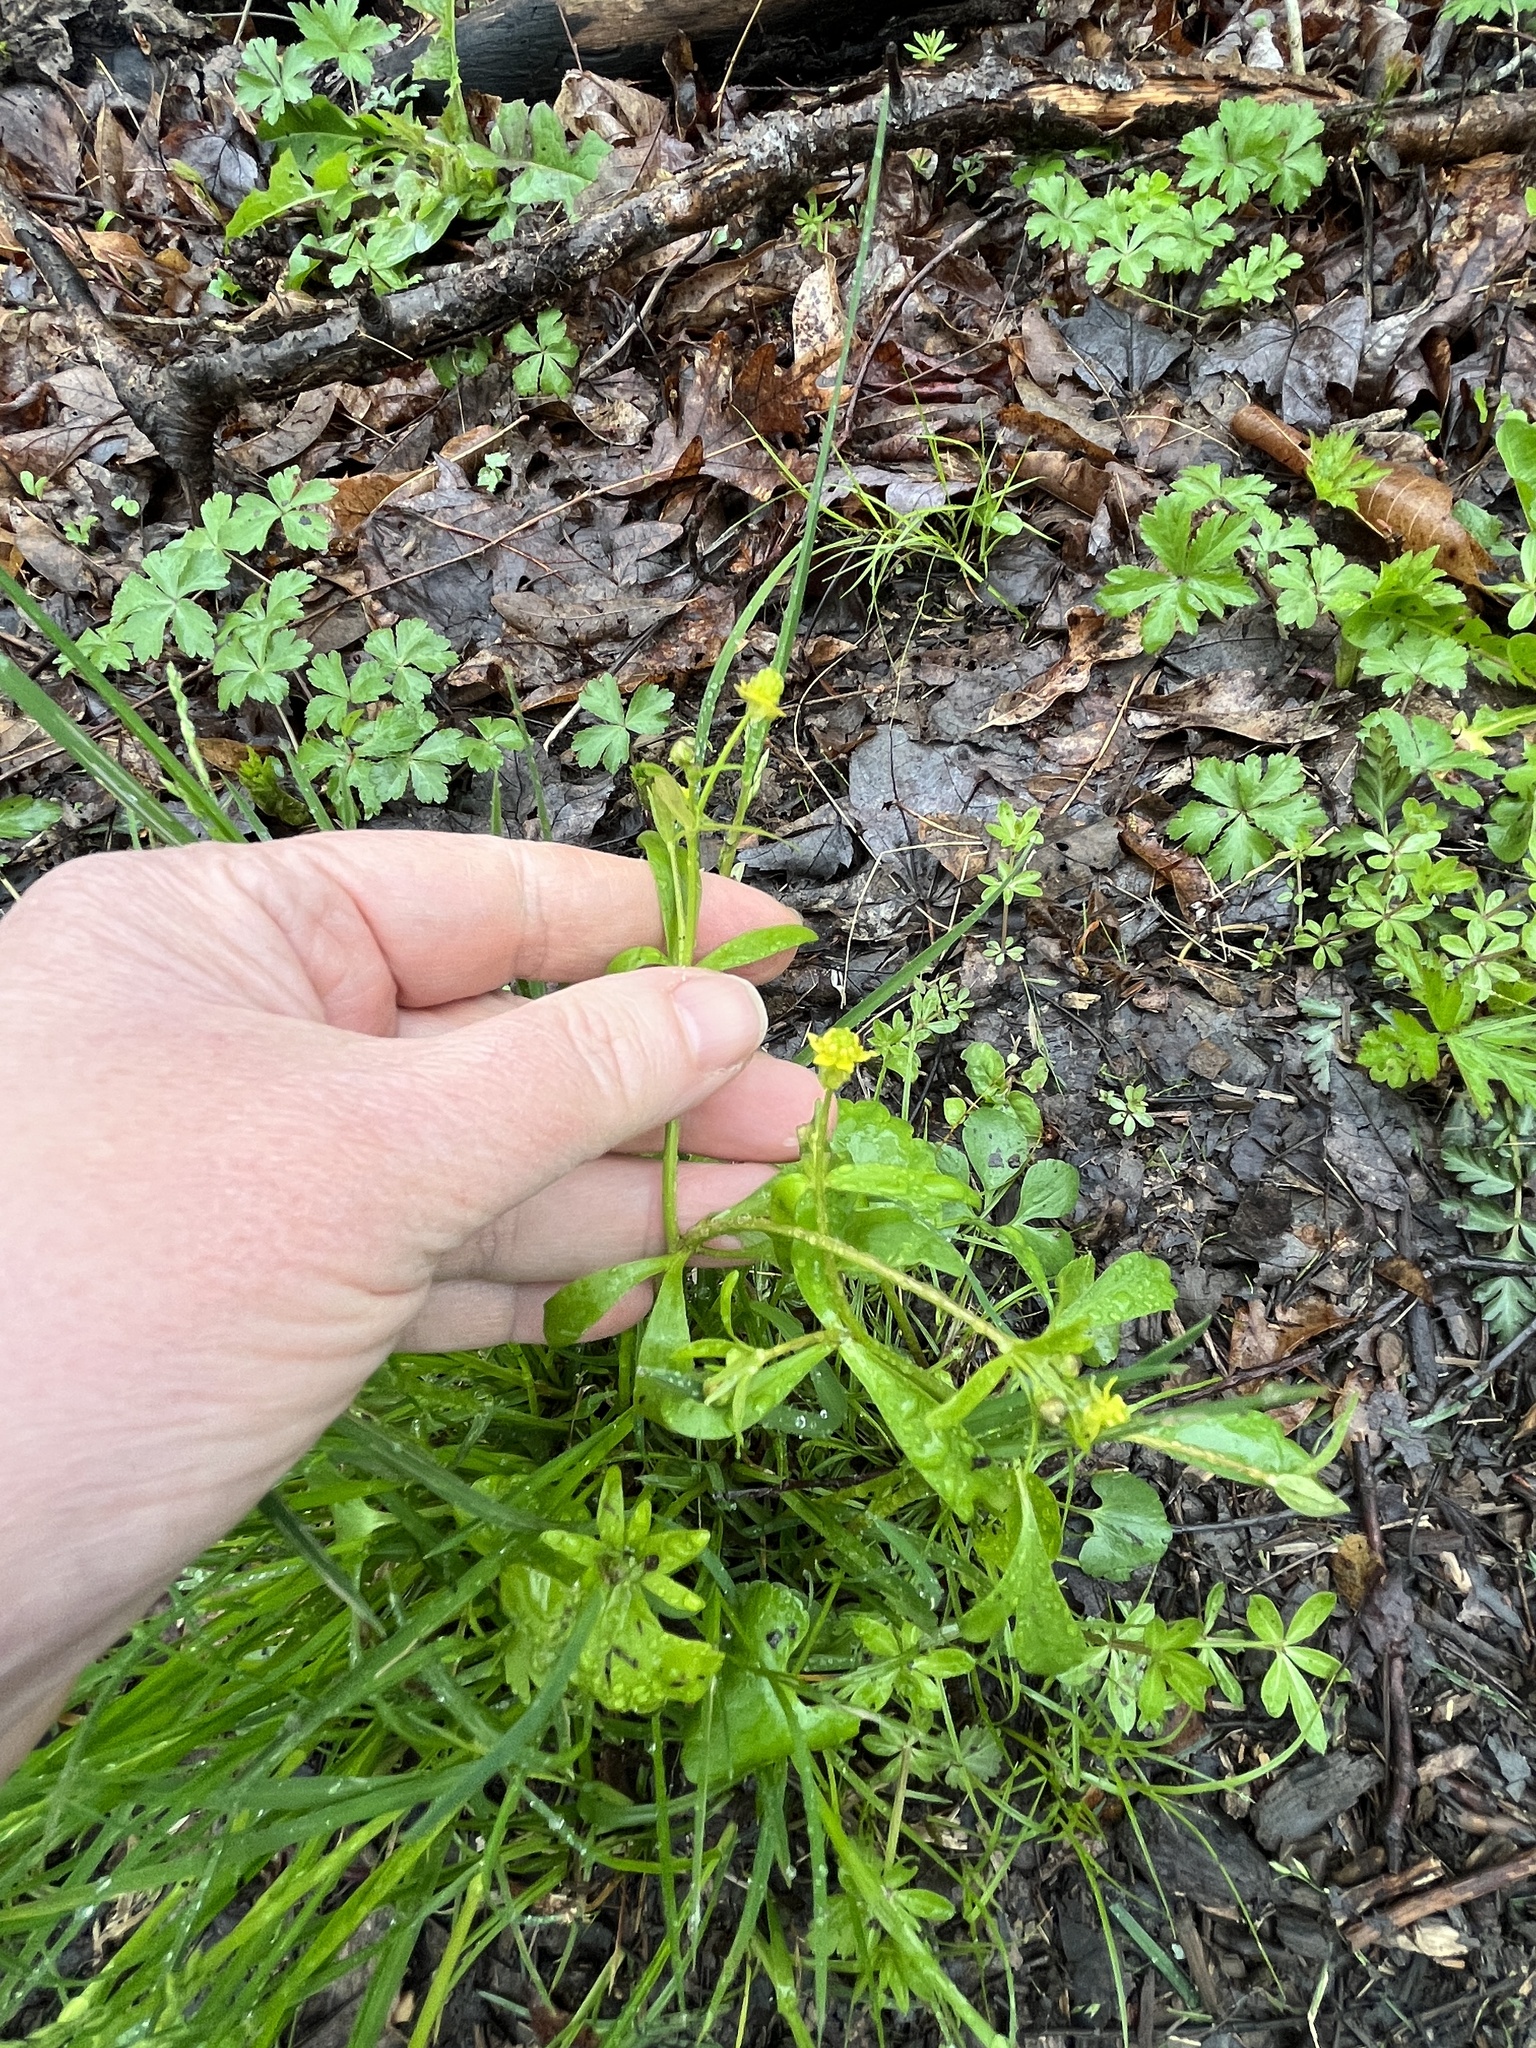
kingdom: Plantae
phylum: Tracheophyta
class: Magnoliopsida
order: Ranunculales
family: Ranunculaceae
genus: Ranunculus
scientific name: Ranunculus abortivus
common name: Early wood buttercup
